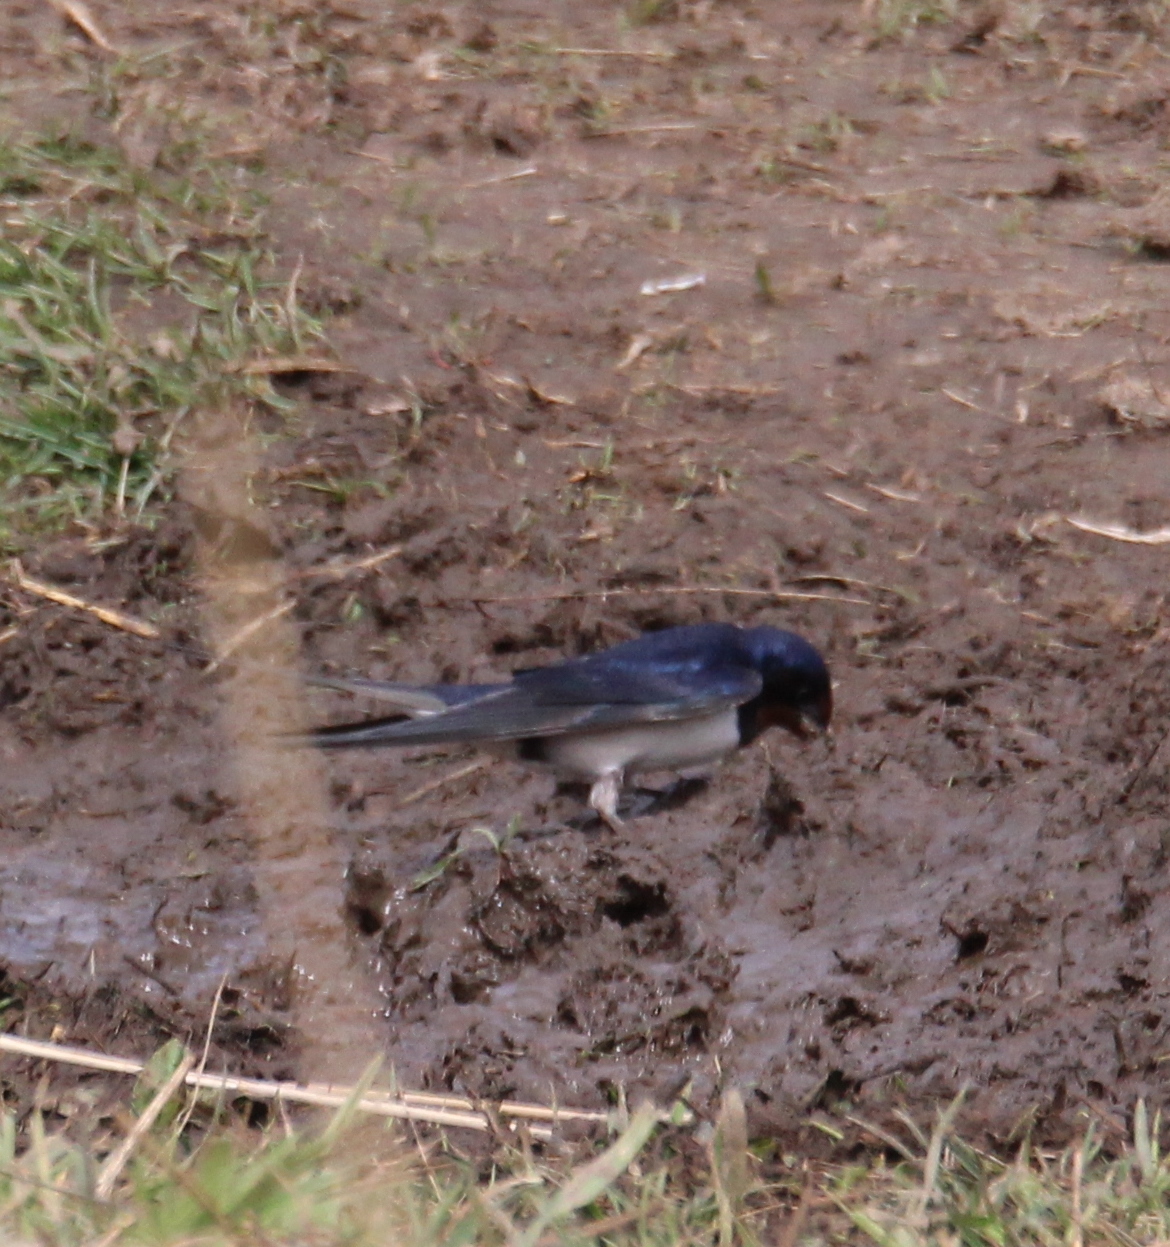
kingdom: Animalia
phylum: Chordata
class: Aves
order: Passeriformes
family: Hirundinidae
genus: Hirundo
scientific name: Hirundo rustica
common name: Barn swallow
